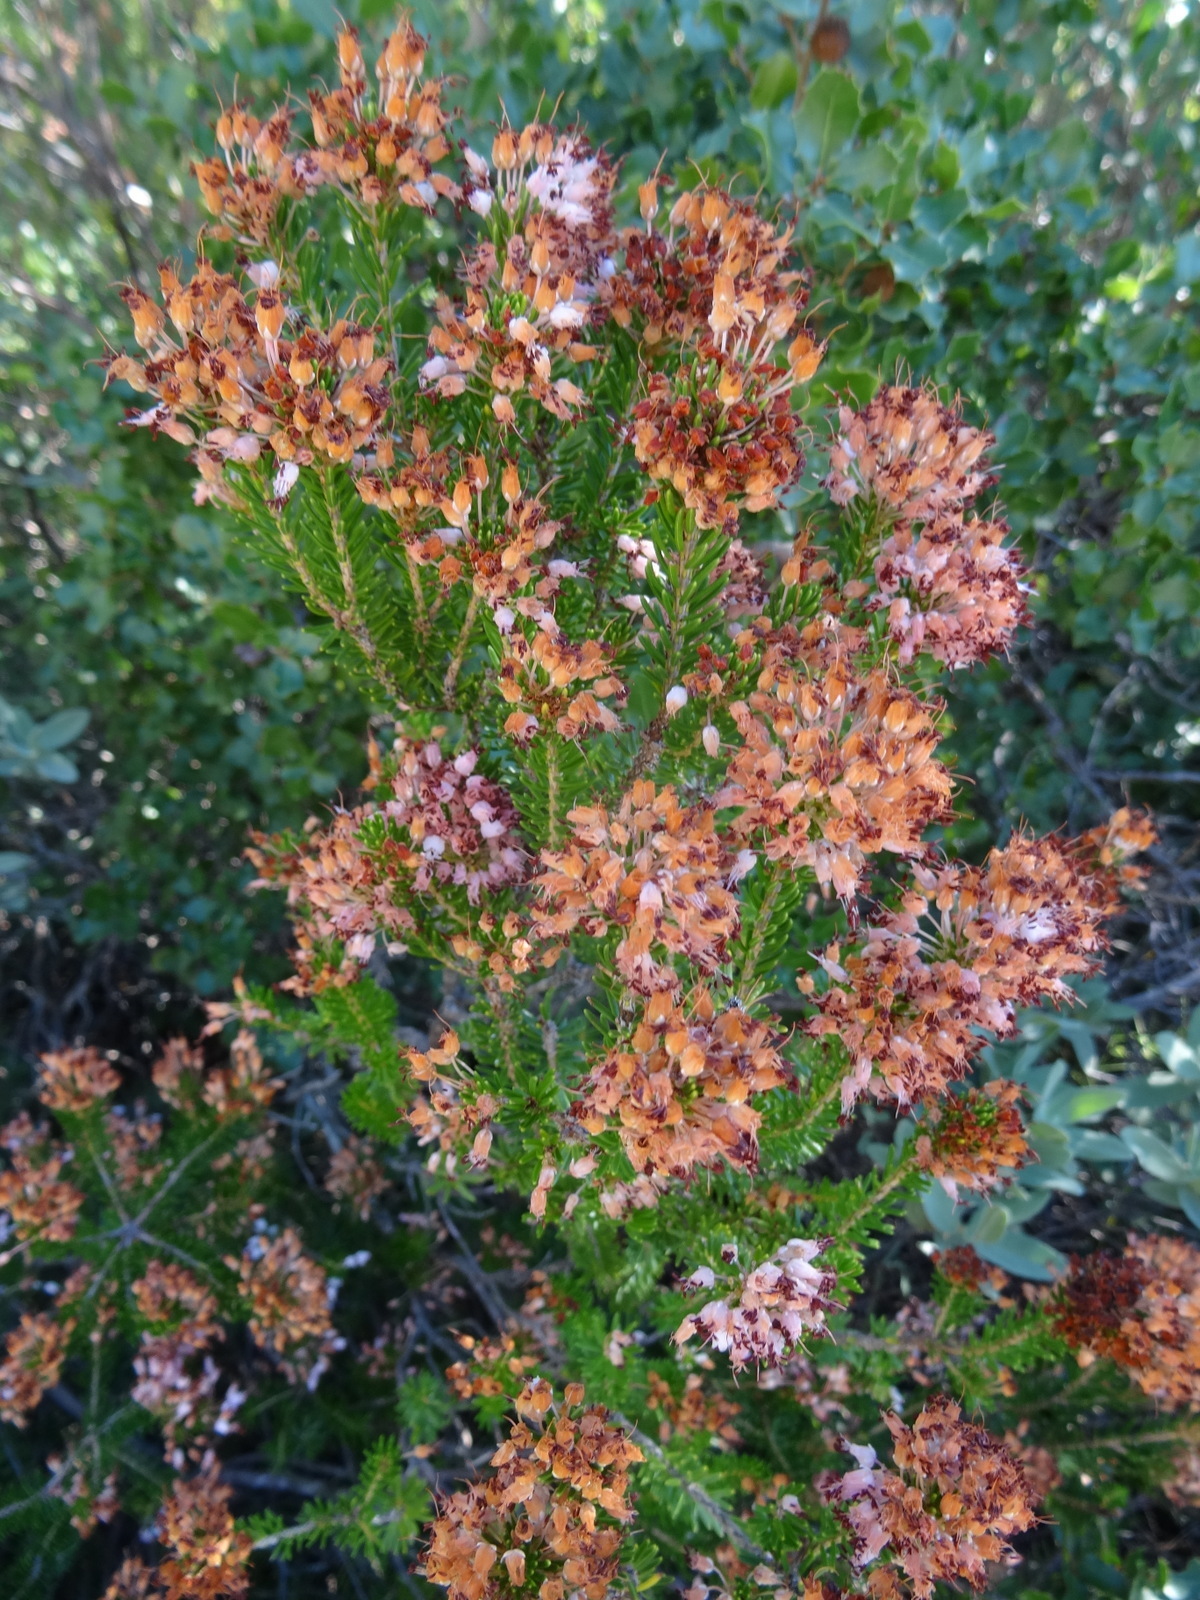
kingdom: Plantae
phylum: Tracheophyta
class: Magnoliopsida
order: Ericales
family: Ericaceae
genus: Erica
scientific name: Erica multiflora
